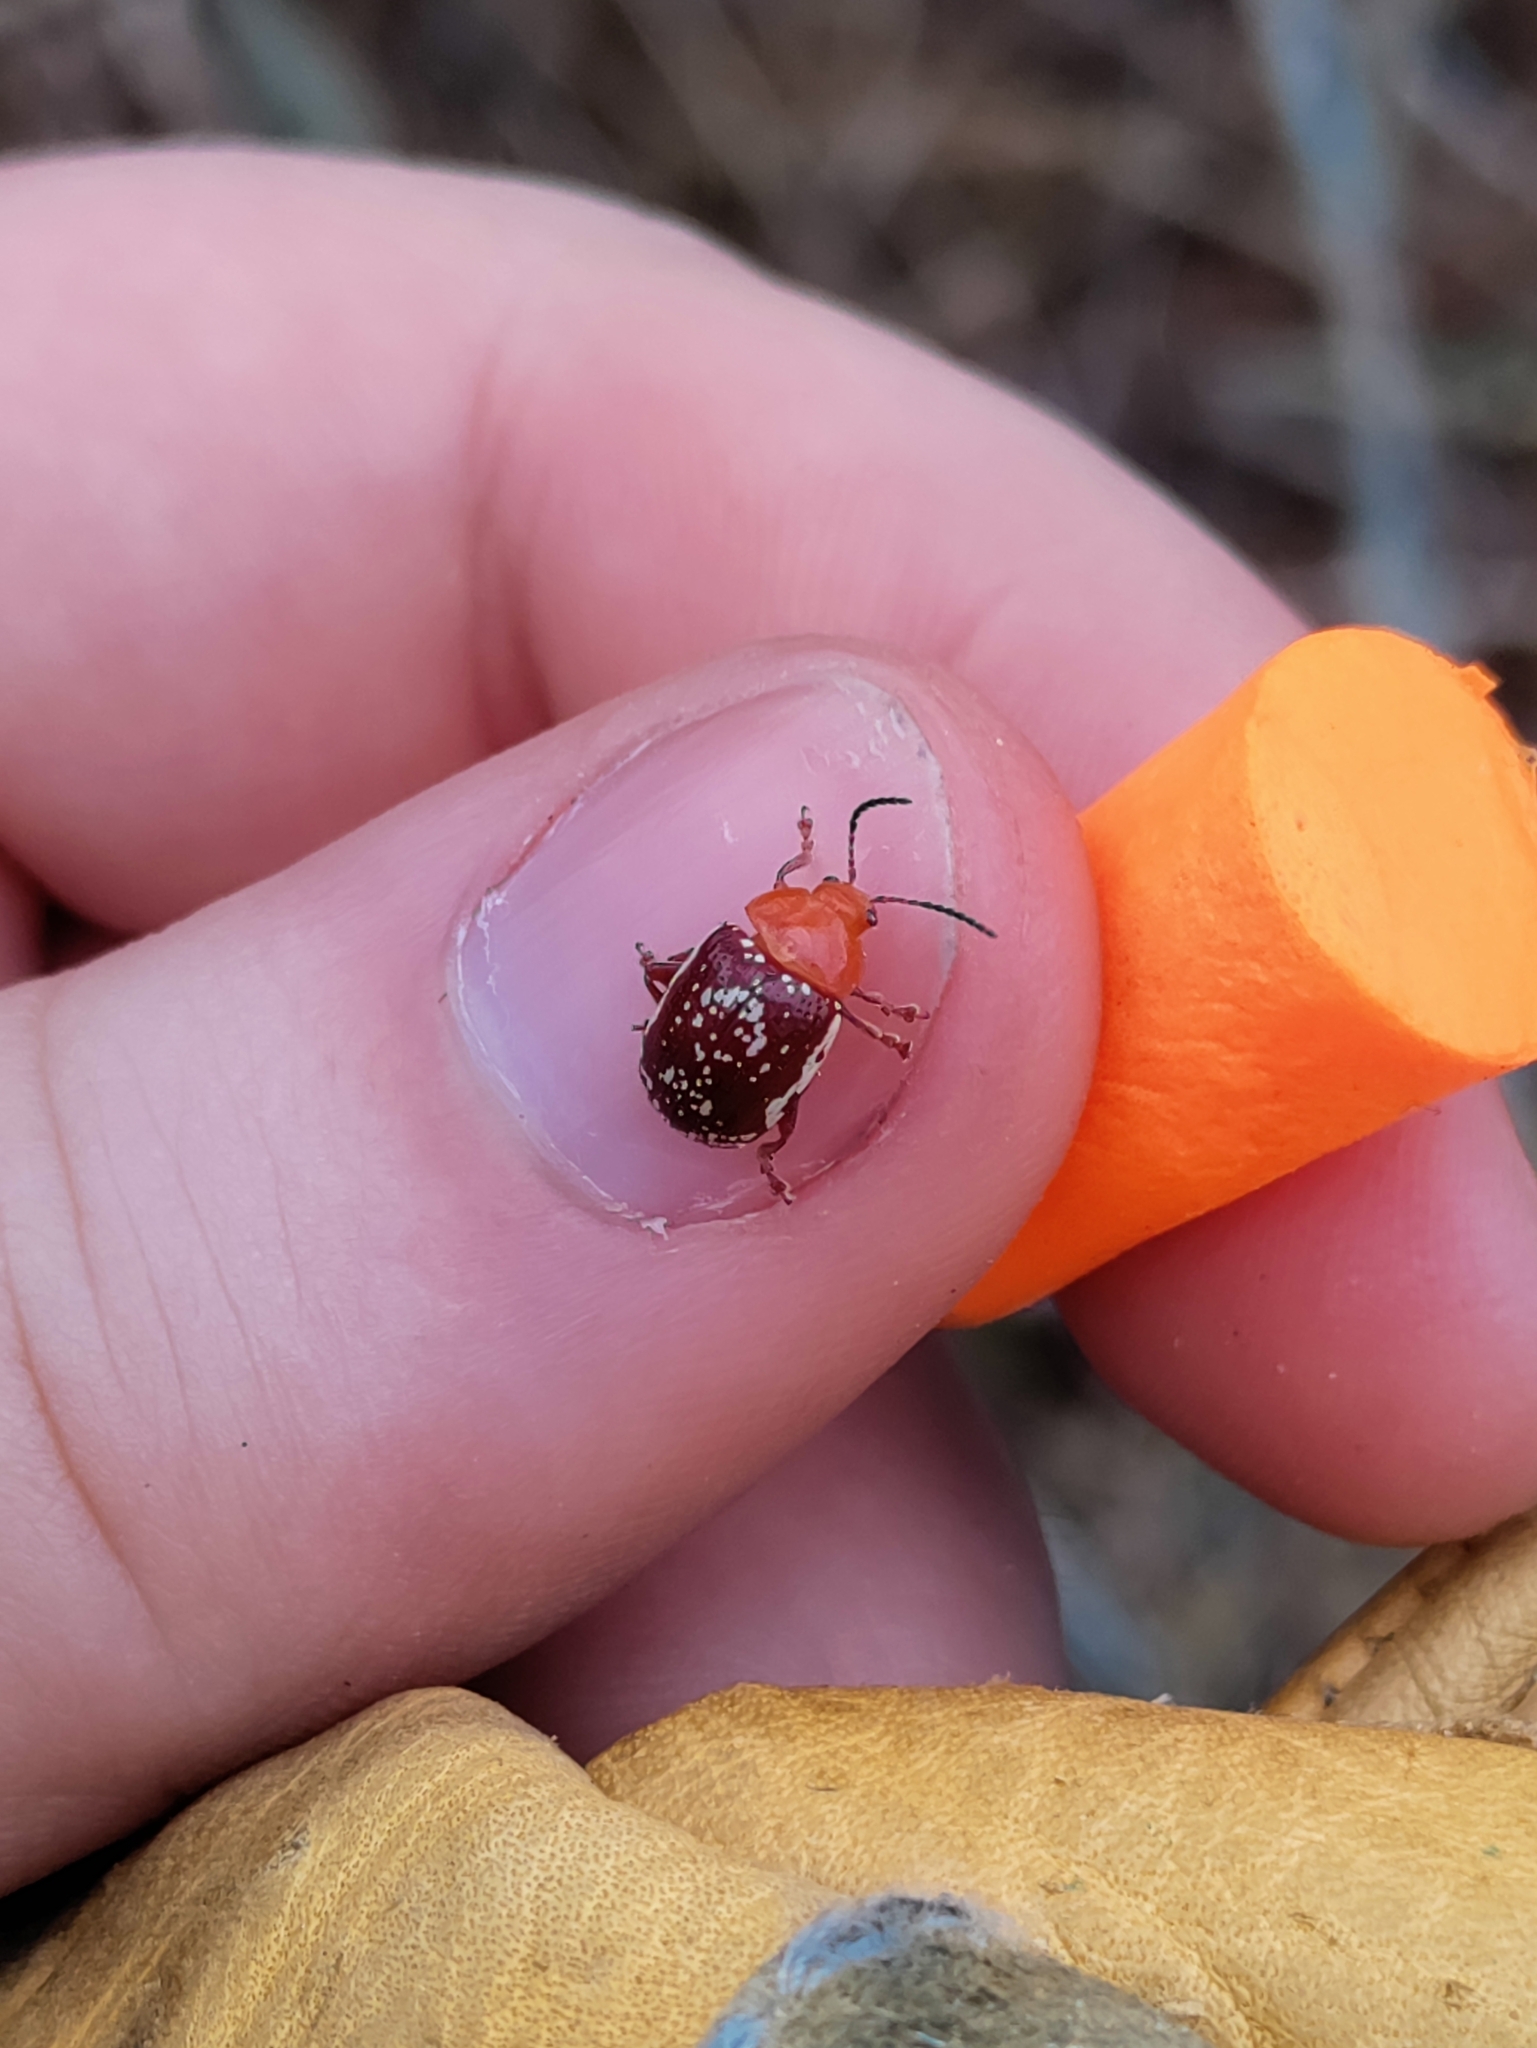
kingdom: Animalia
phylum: Arthropoda
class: Insecta
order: Coleoptera
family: Chrysomelidae
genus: Blepharida
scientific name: Blepharida rhois
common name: Sumac flea beetle
